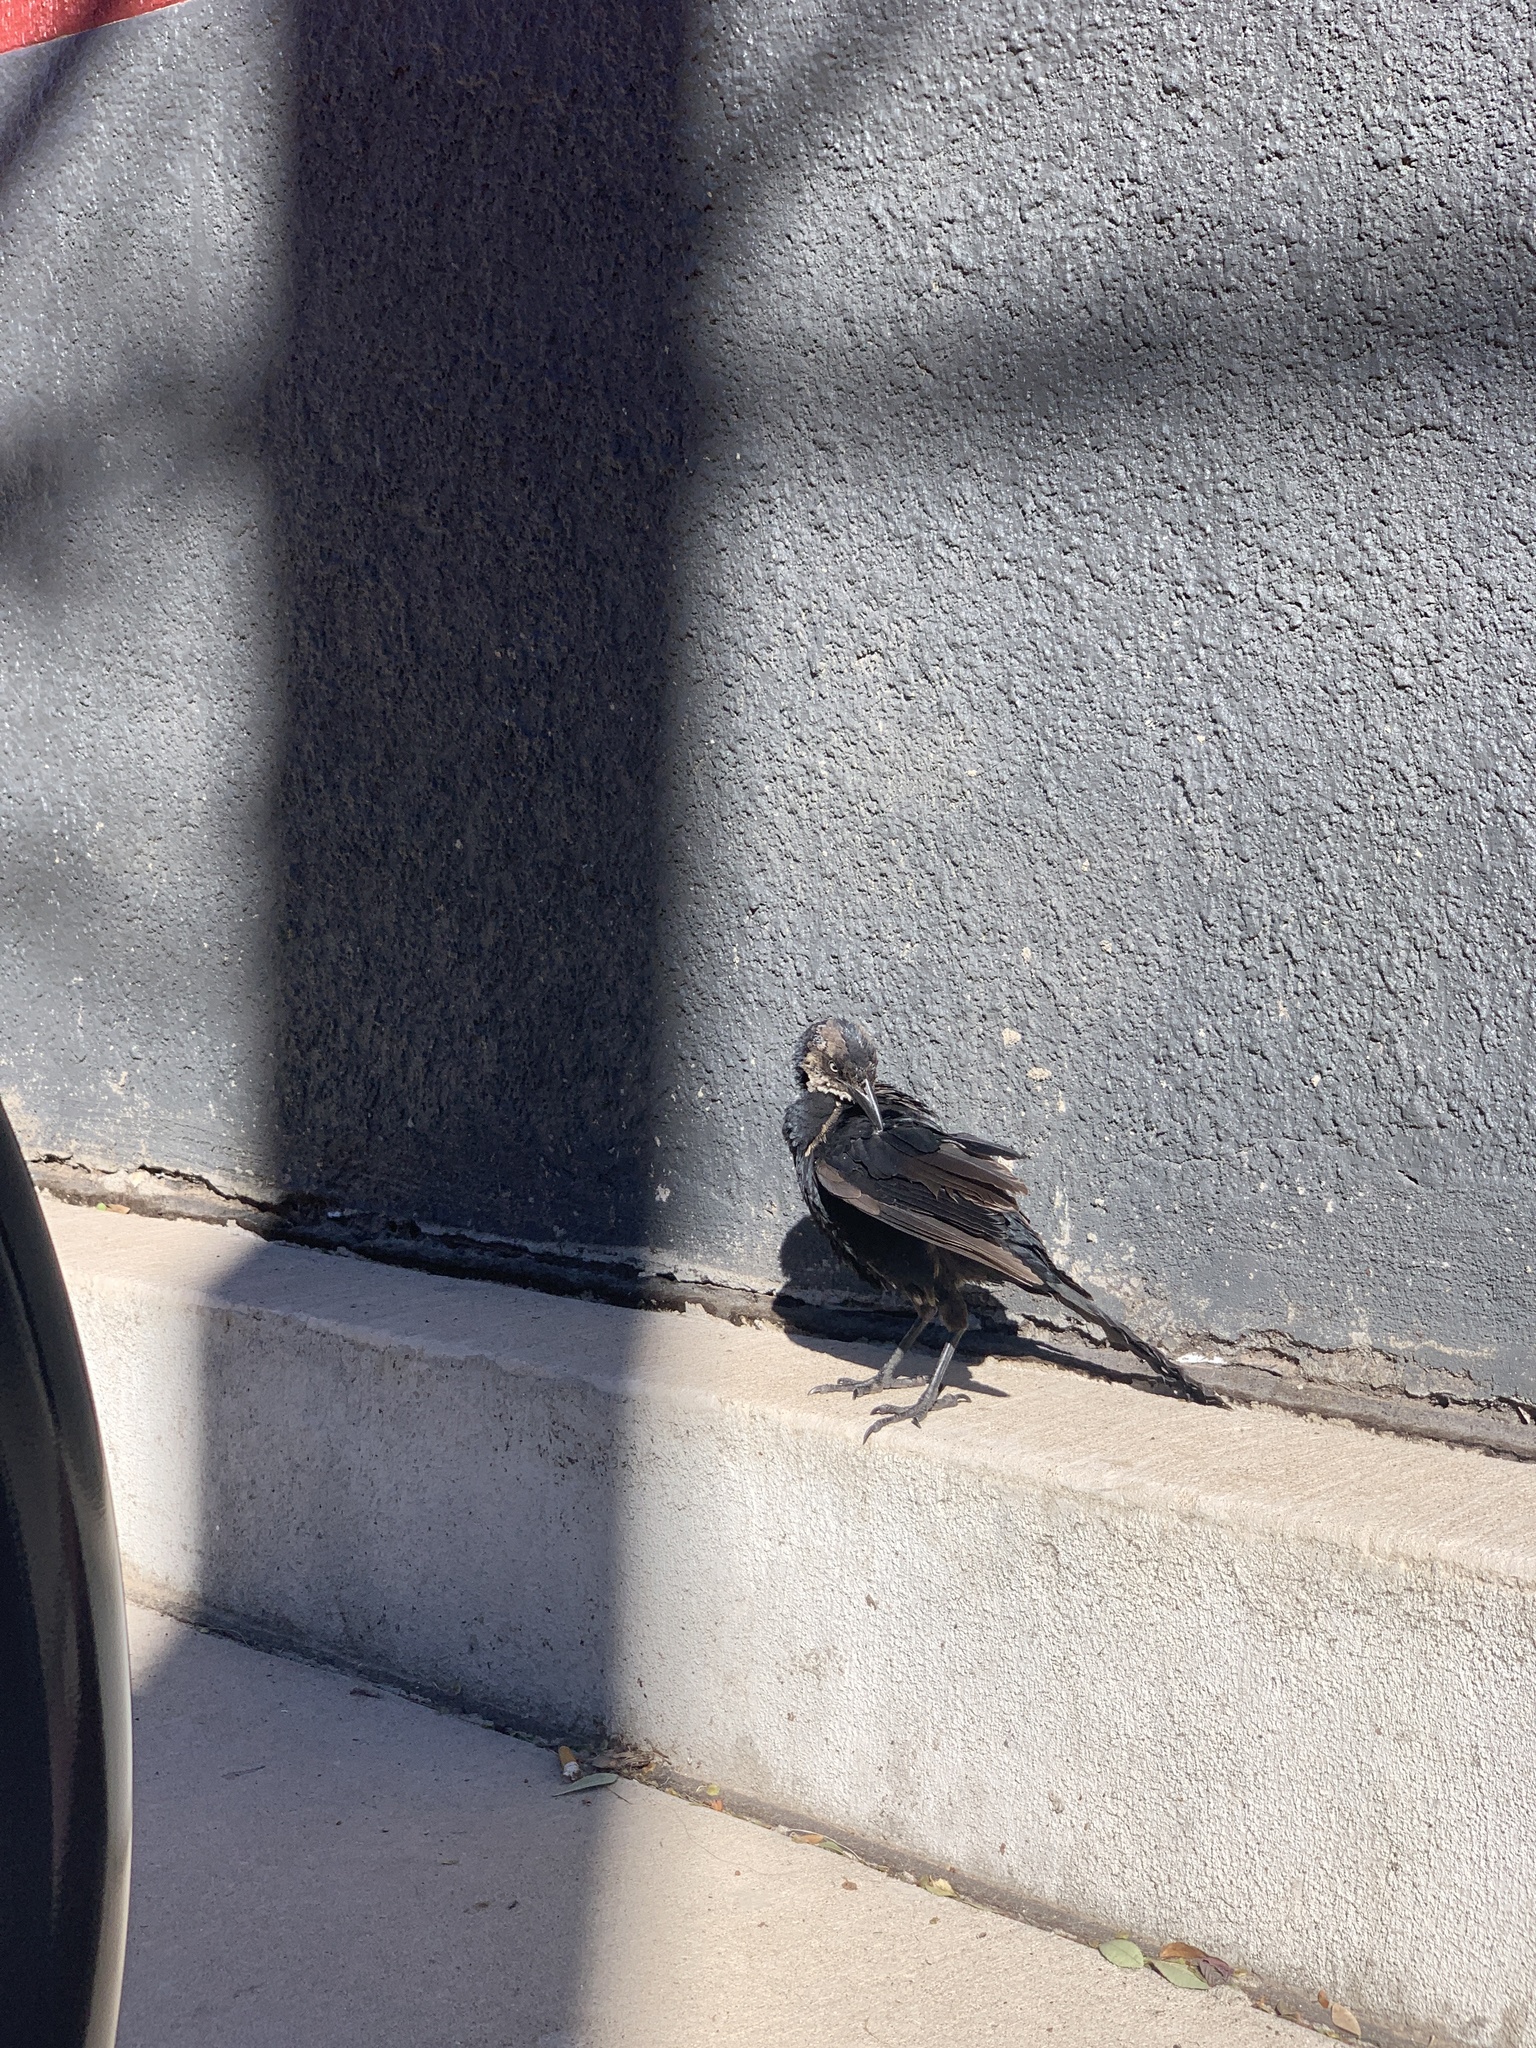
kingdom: Animalia
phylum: Chordata
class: Aves
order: Passeriformes
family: Icteridae
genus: Quiscalus
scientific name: Quiscalus mexicanus
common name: Great-tailed grackle
